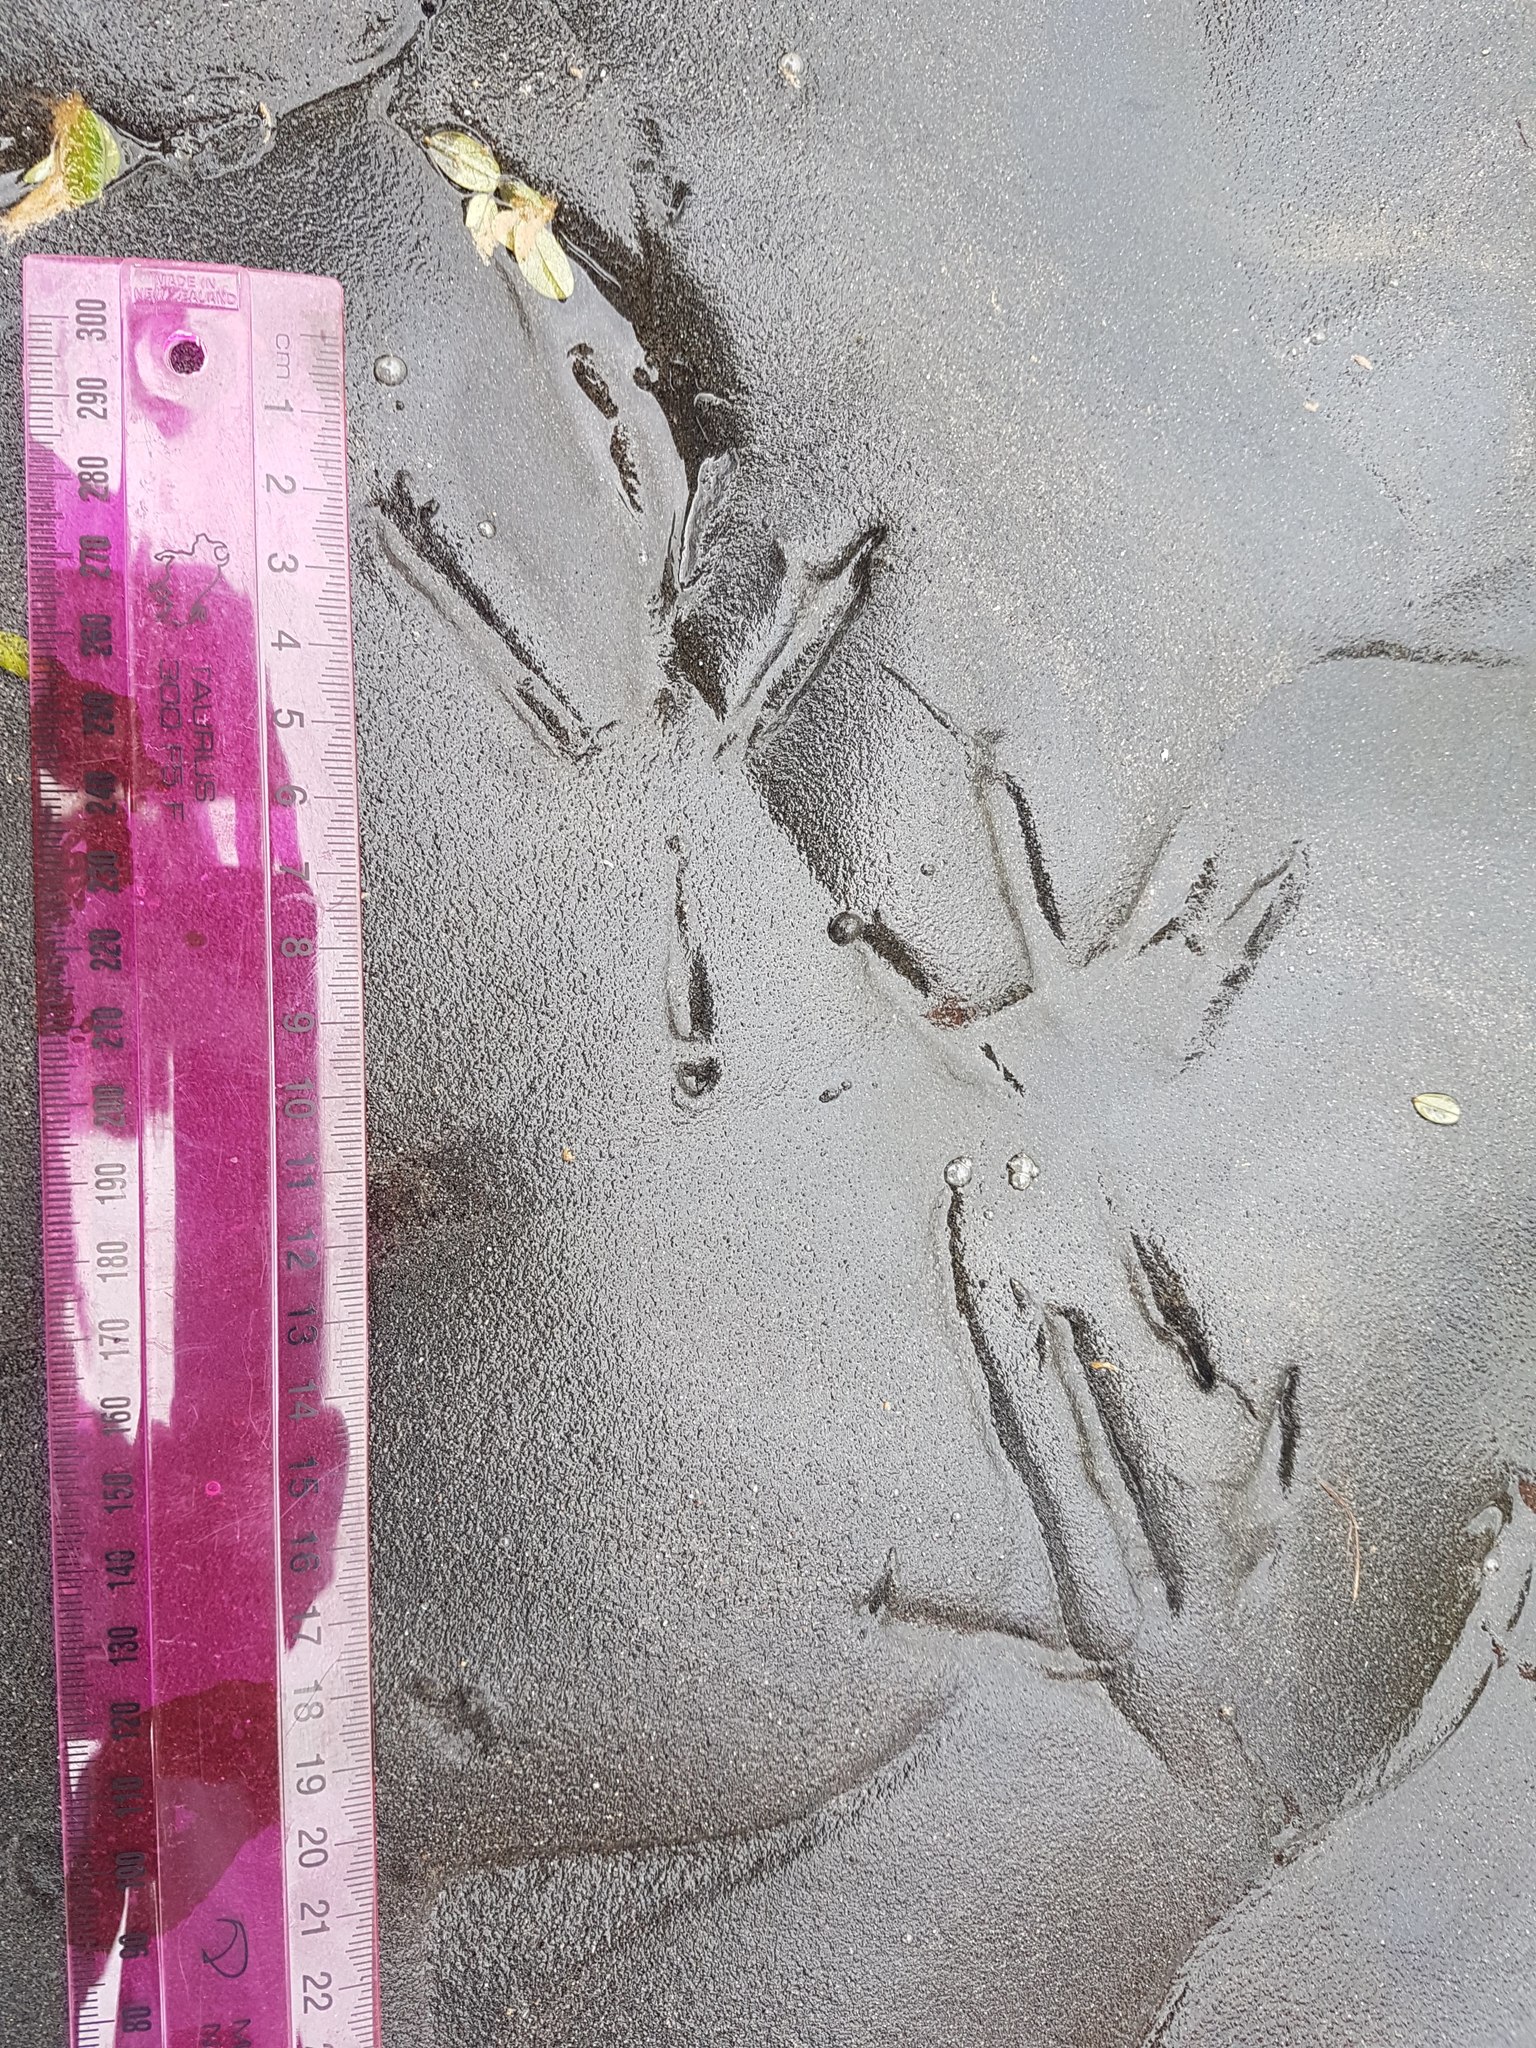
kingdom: Animalia
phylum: Chordata
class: Aves
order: Pelecaniformes
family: Ardeidae
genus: Egretta
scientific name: Egretta novaehollandiae
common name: White-faced heron
